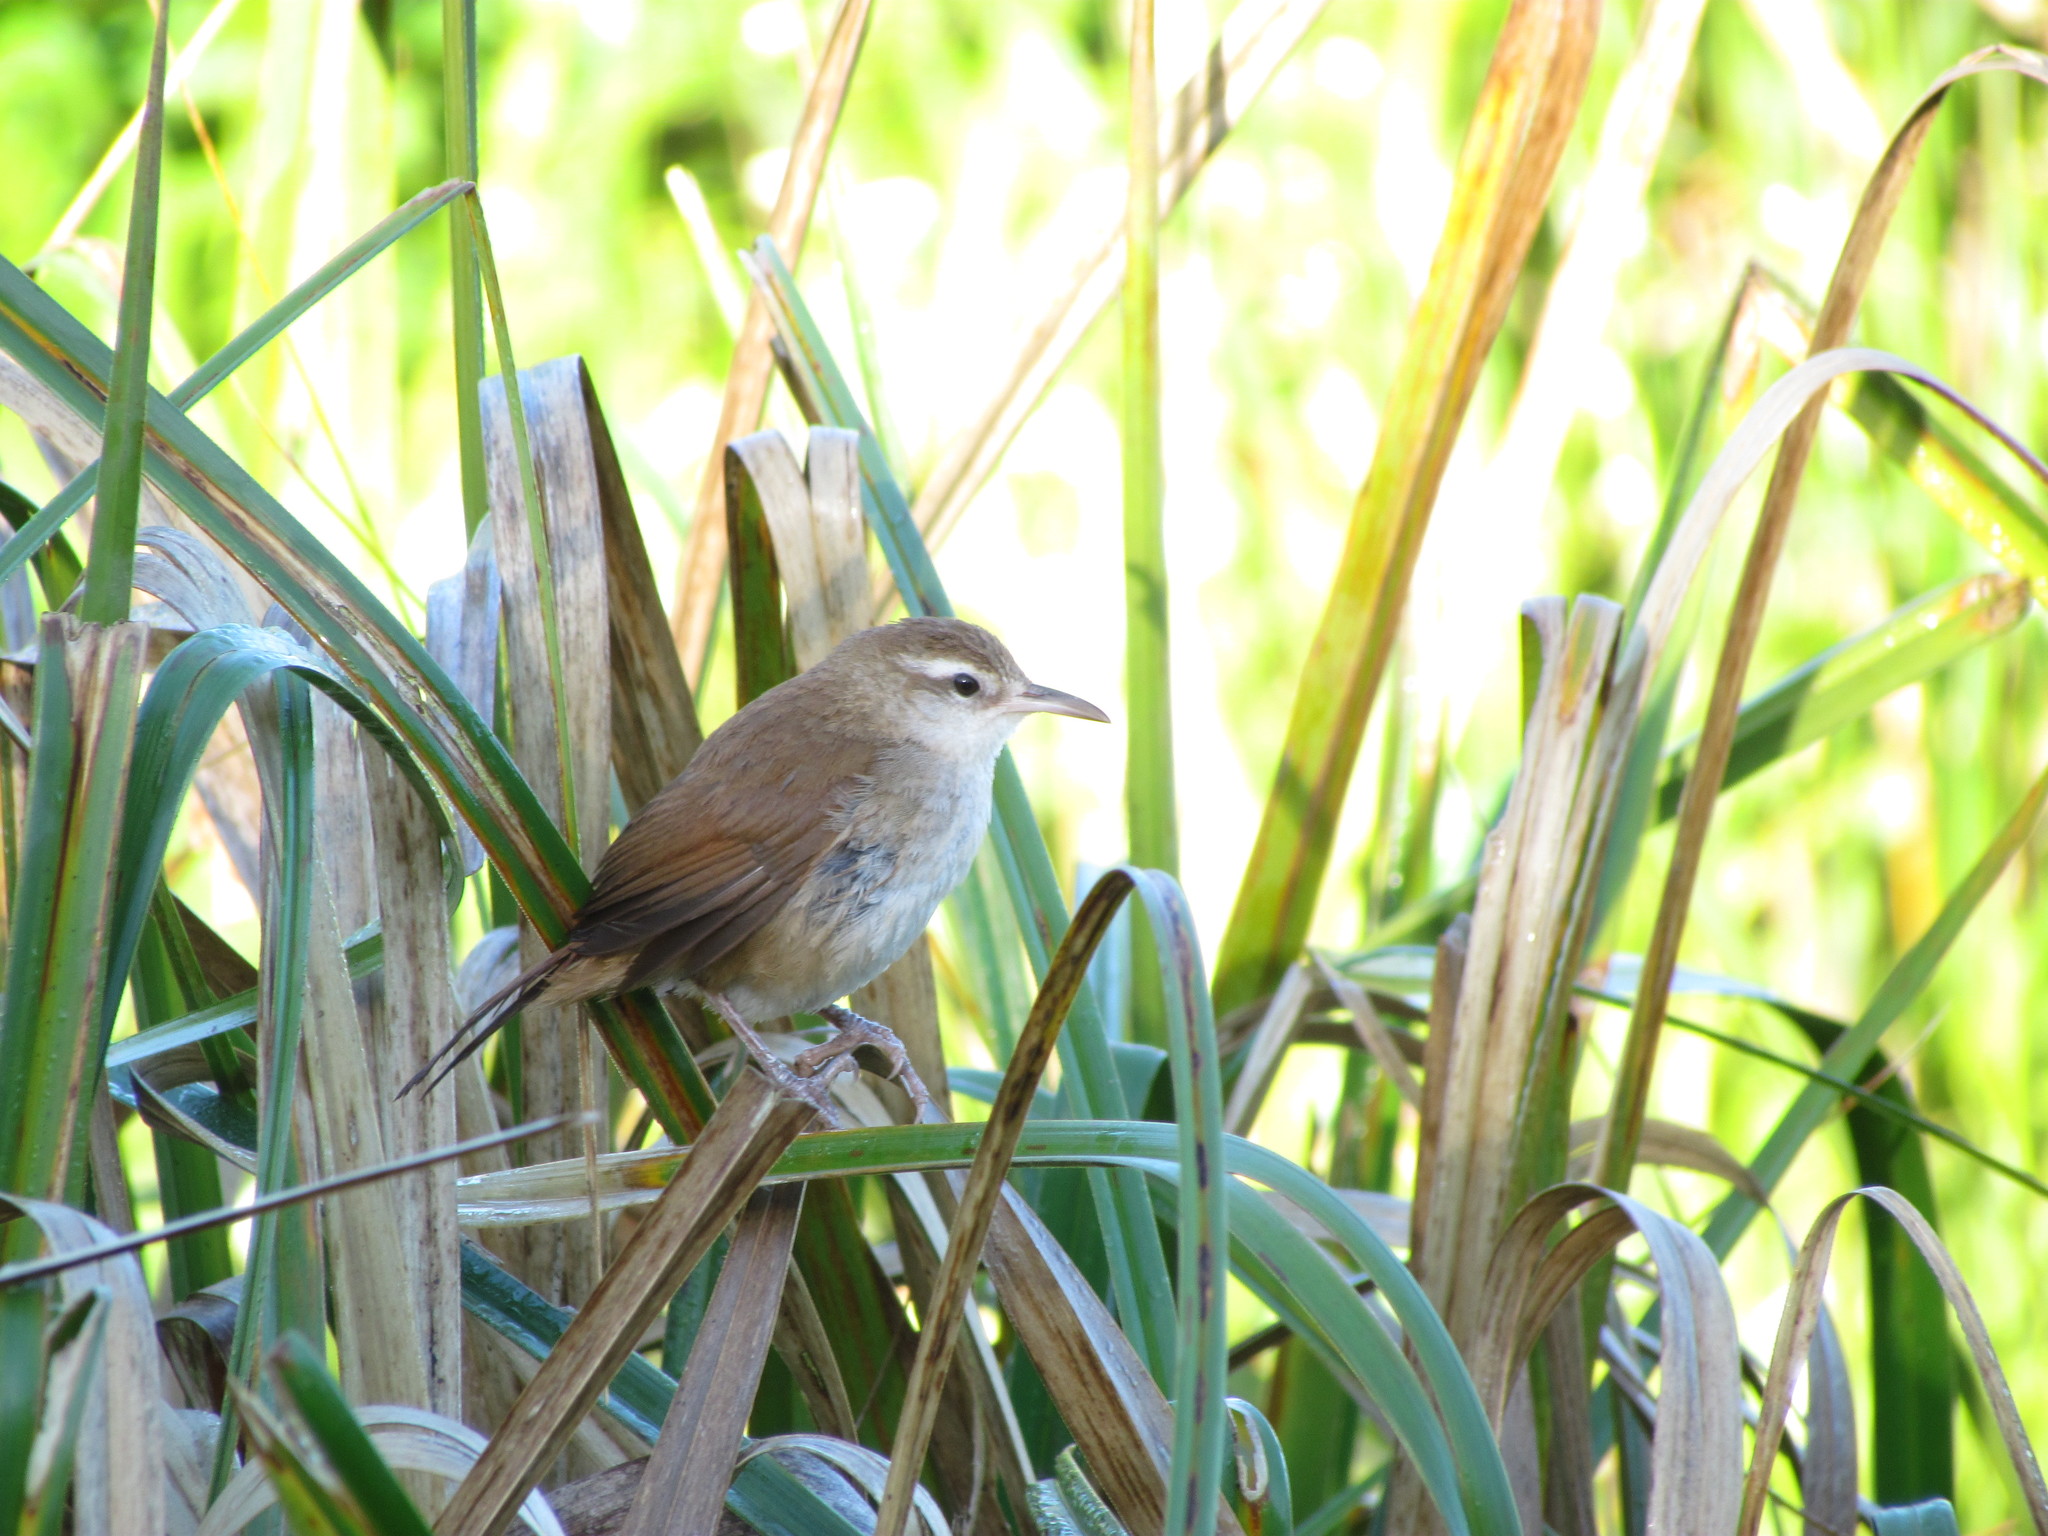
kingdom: Animalia
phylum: Chordata
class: Aves
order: Passeriformes
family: Furnariidae
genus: Limnornis
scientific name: Limnornis curvirostris
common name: Curve-billed reedhaunter
